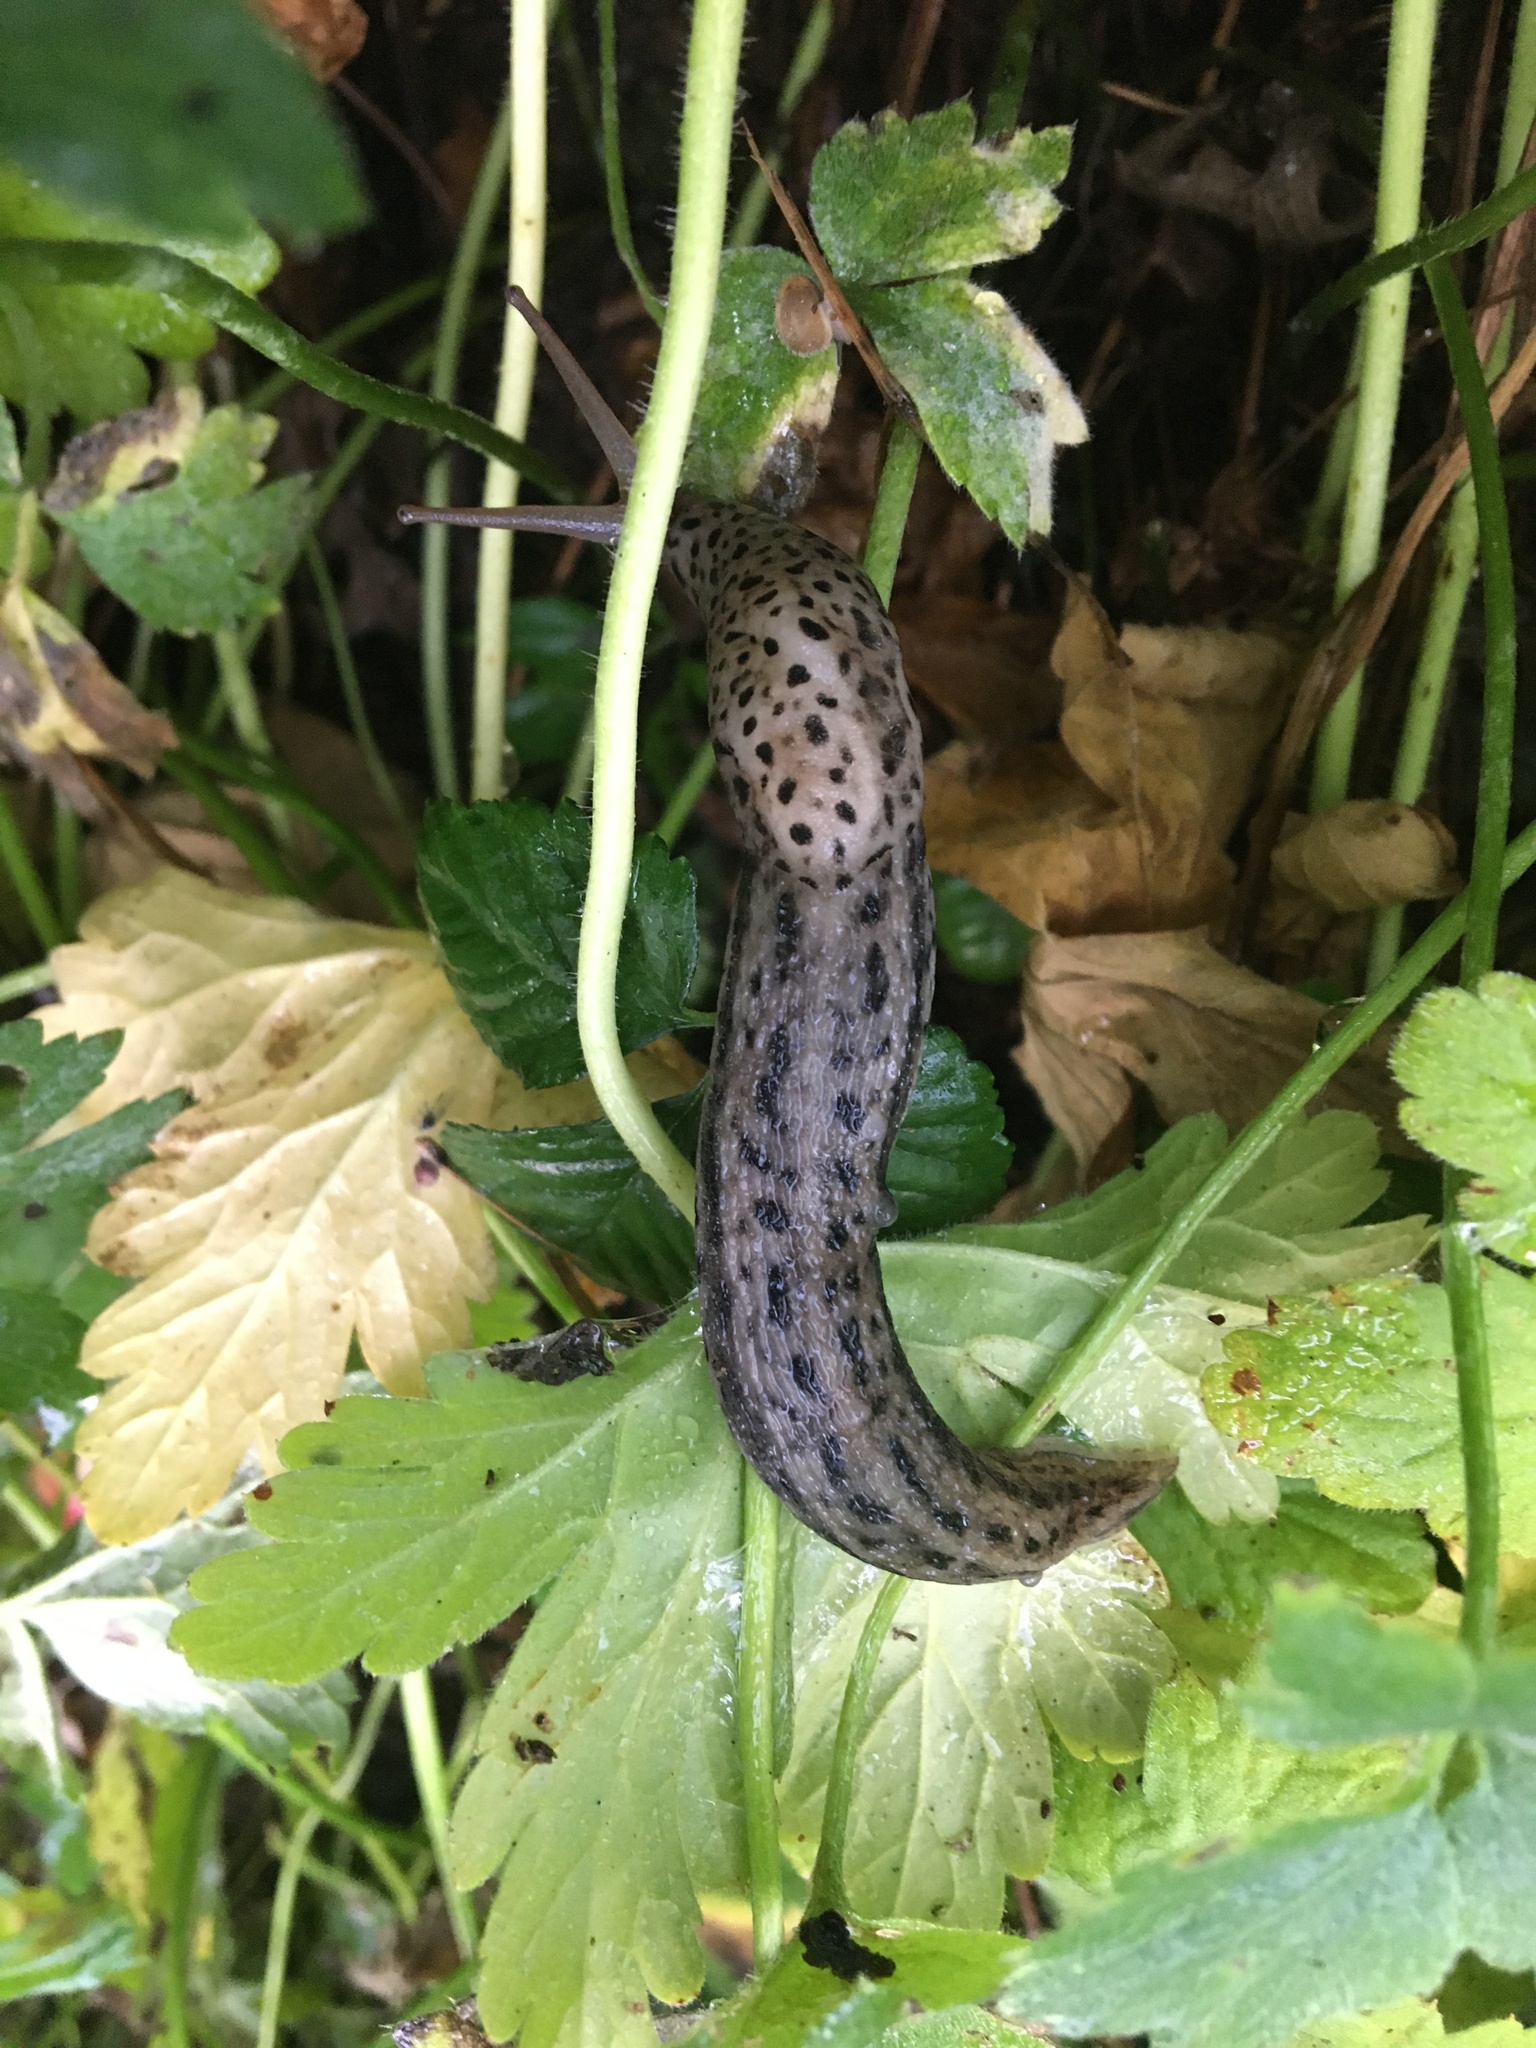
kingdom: Animalia
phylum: Mollusca
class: Gastropoda
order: Stylommatophora
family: Limacidae
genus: Limax
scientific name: Limax maximus
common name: Great grey slug
